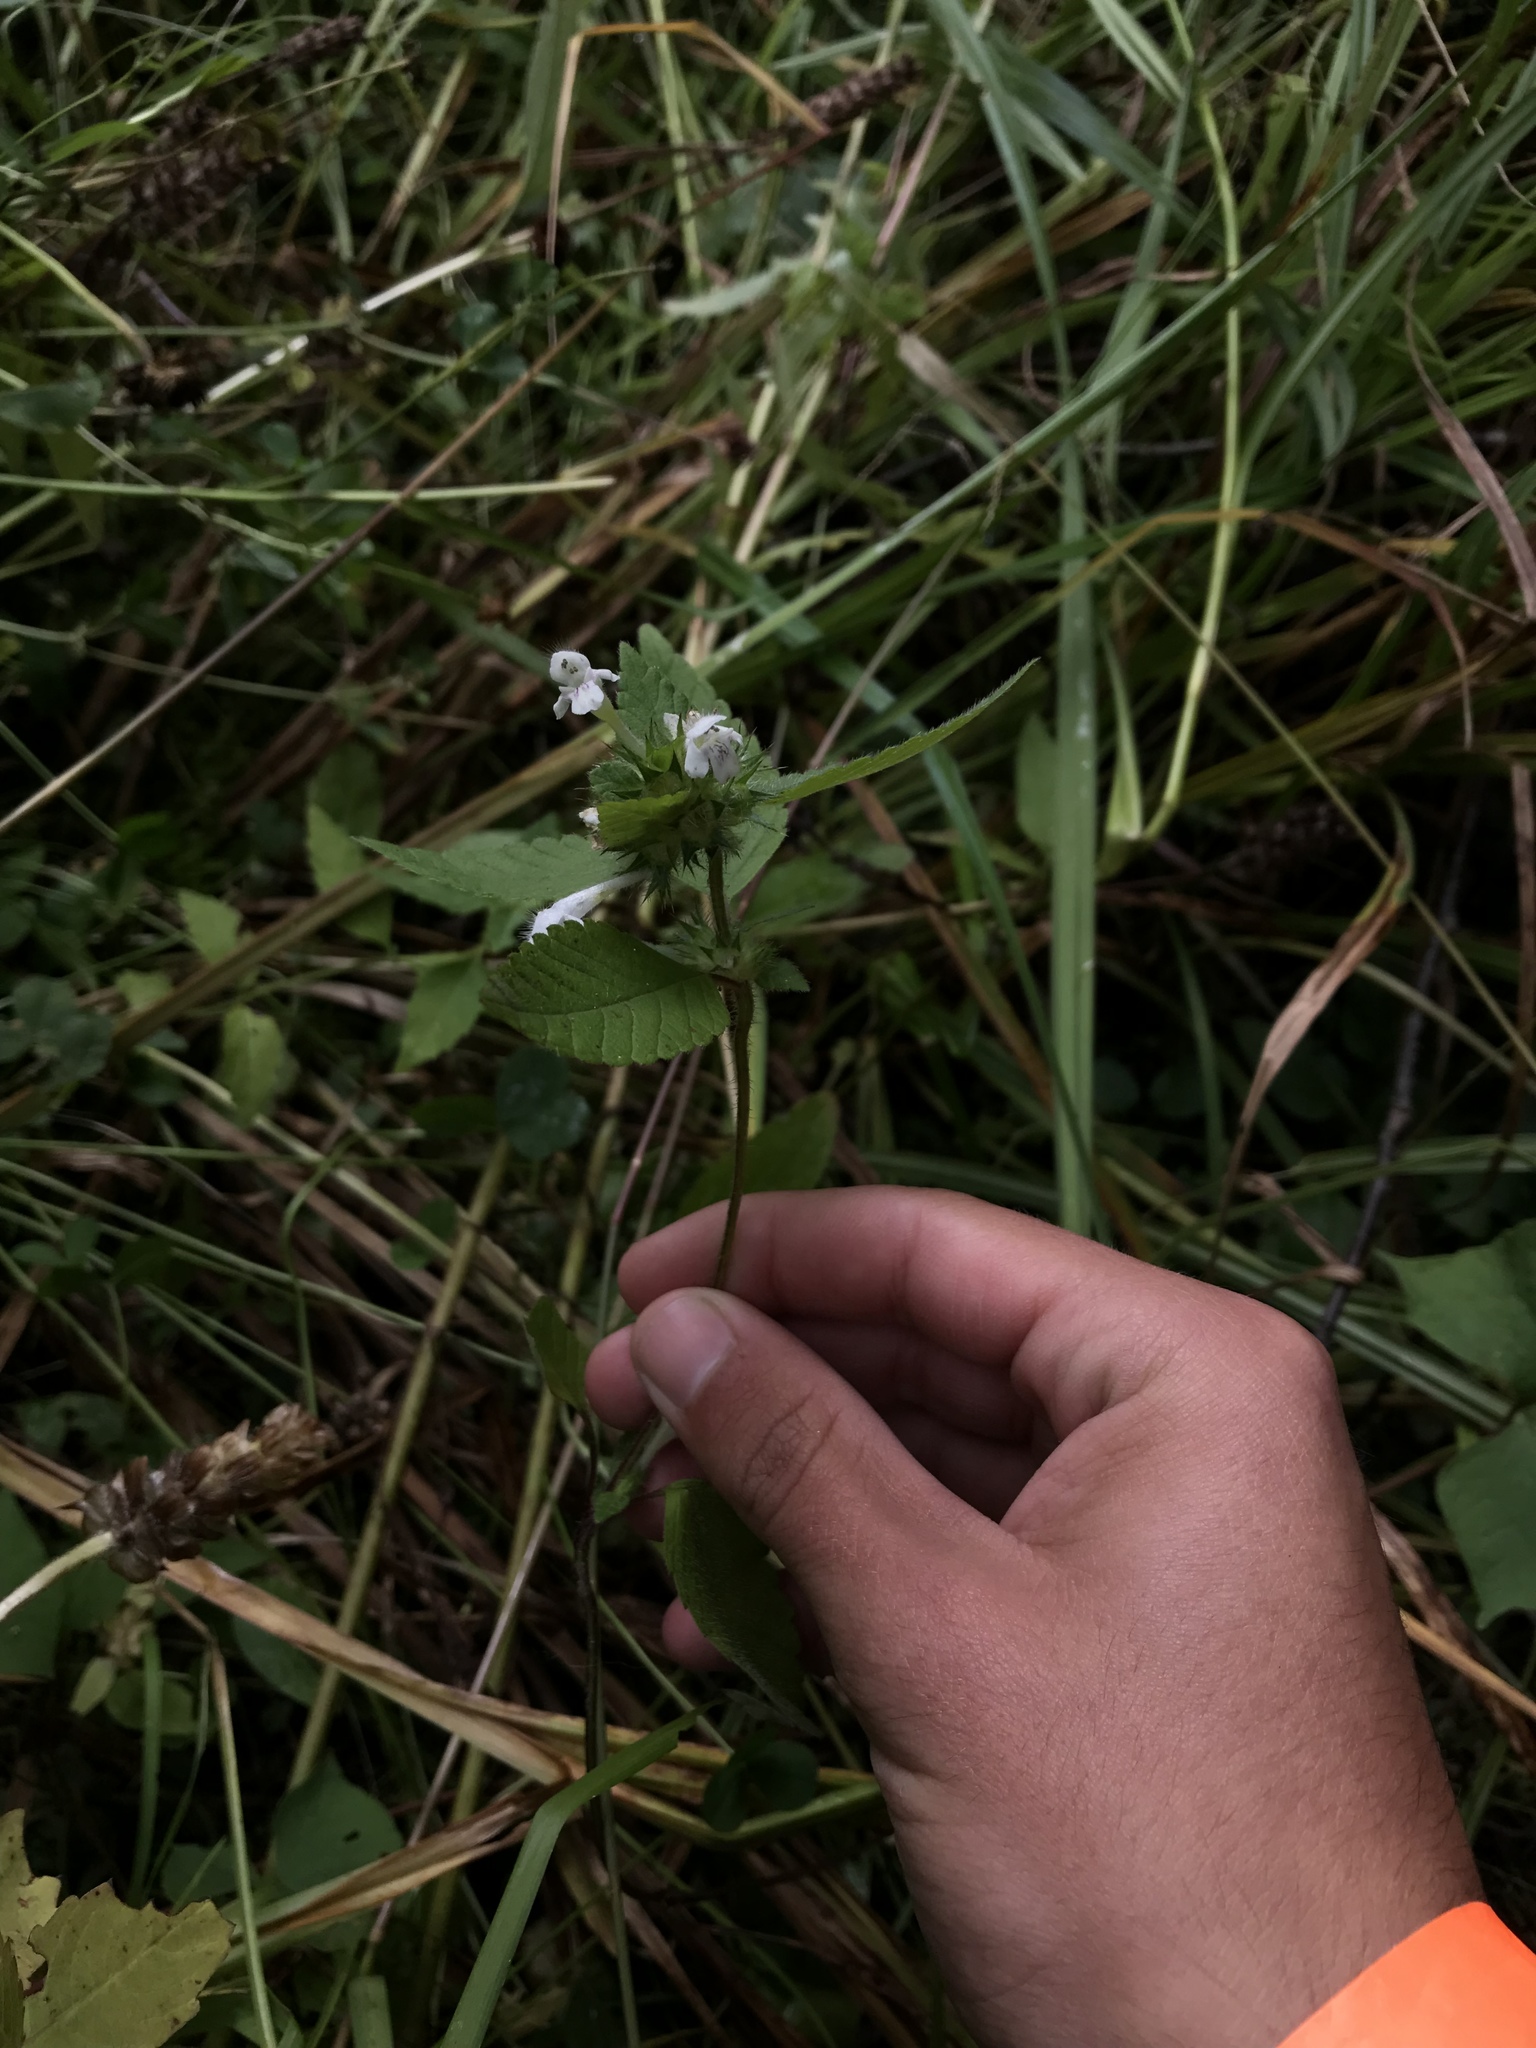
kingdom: Plantae
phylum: Tracheophyta
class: Magnoliopsida
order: Lamiales
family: Lamiaceae
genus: Galeopsis
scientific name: Galeopsis bifida
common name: Bifid hemp-nettle
